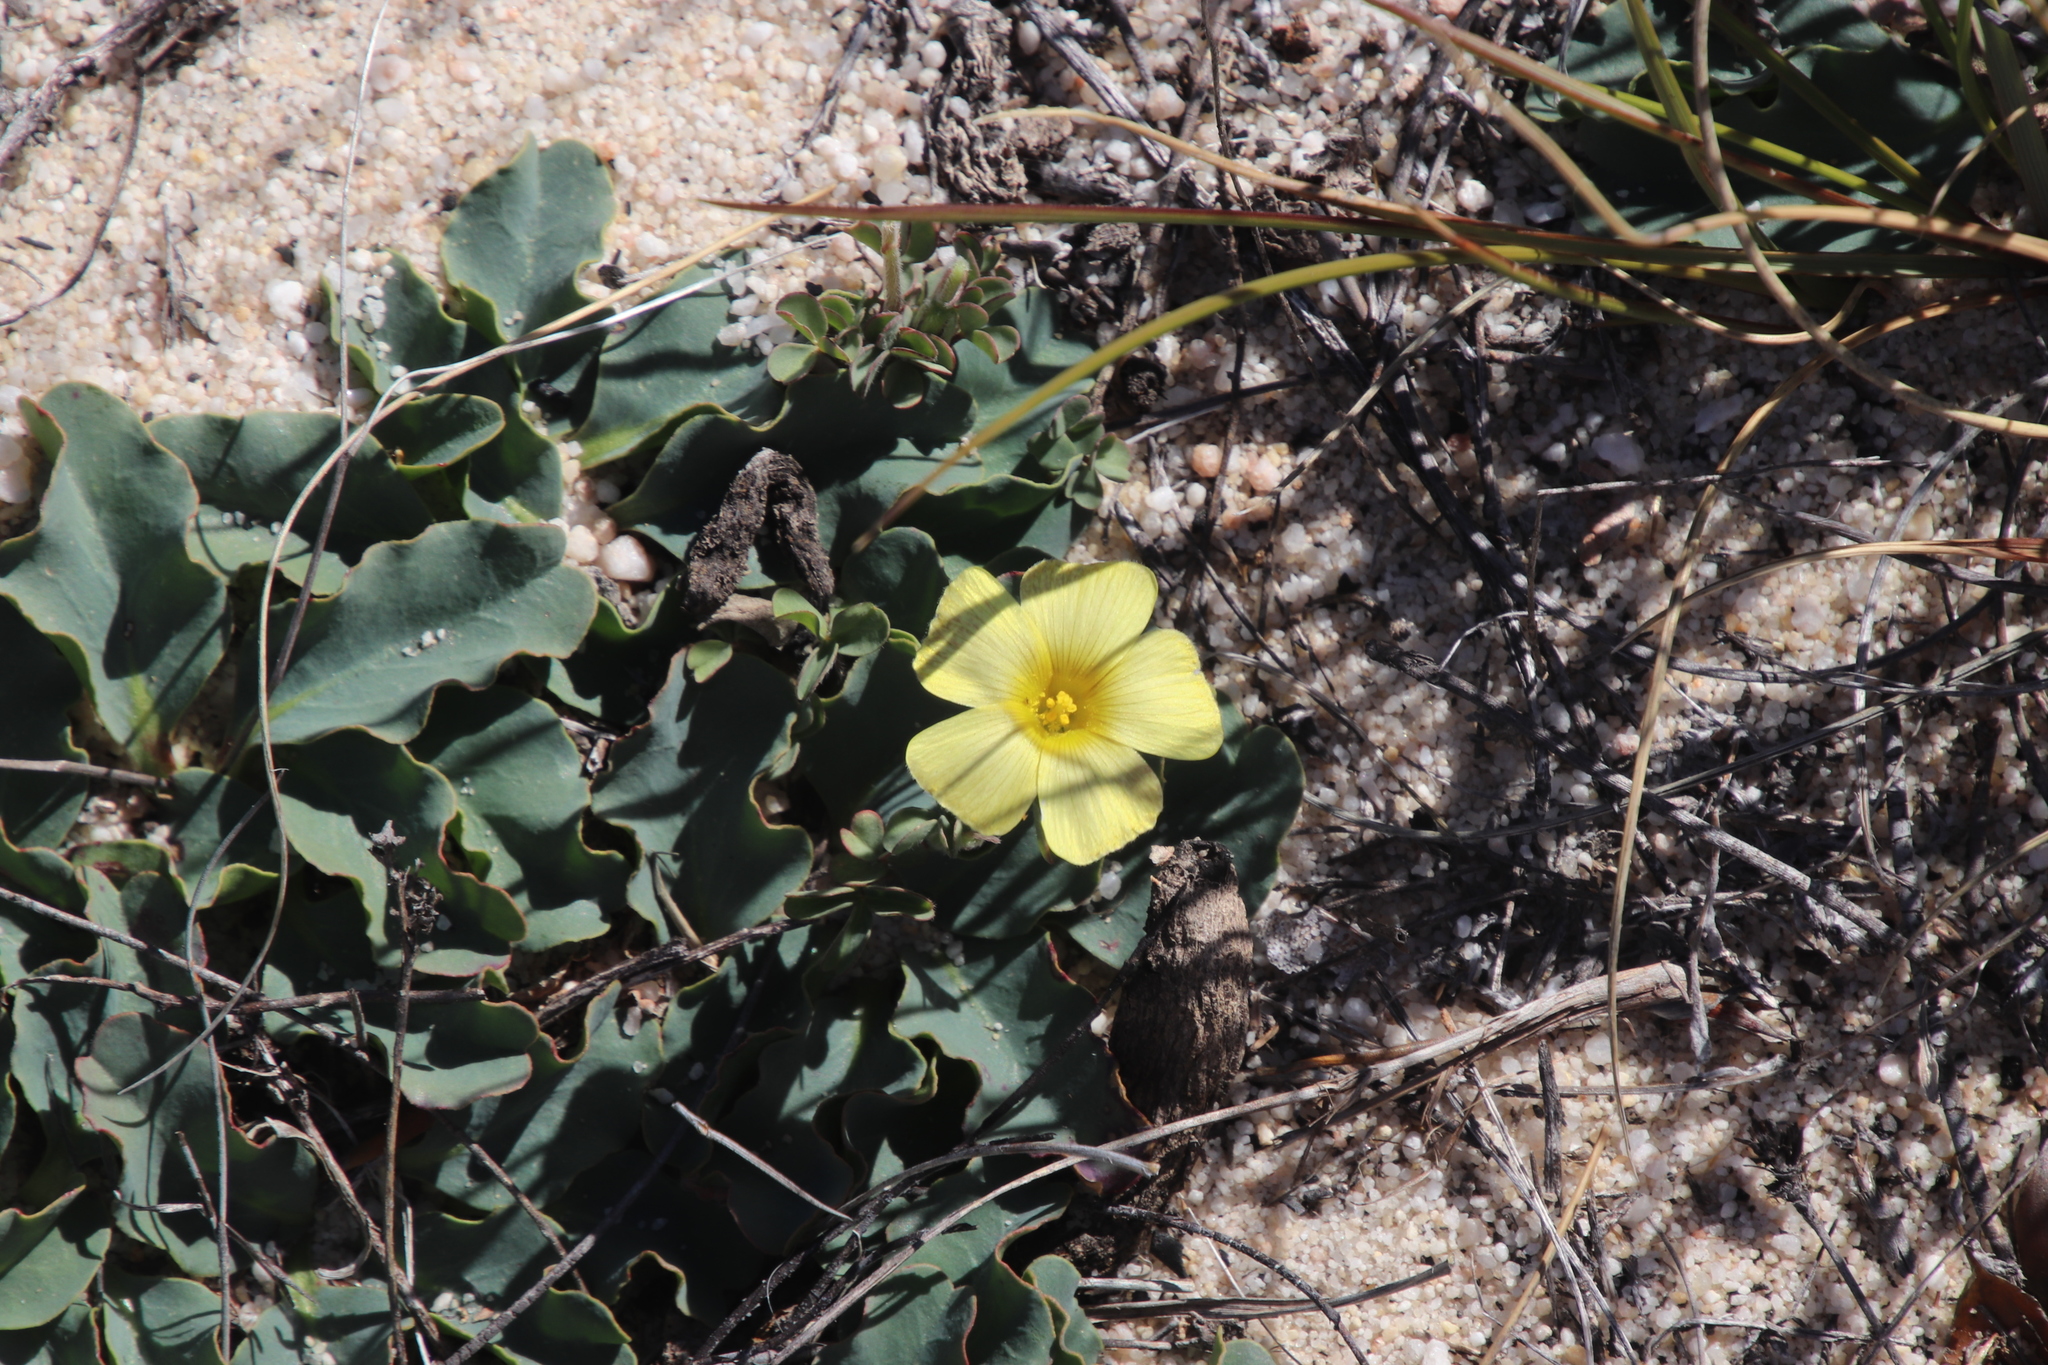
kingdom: Plantae
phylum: Tracheophyta
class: Magnoliopsida
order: Oxalidales
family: Oxalidaceae
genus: Oxalis
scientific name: Oxalis obtusa
